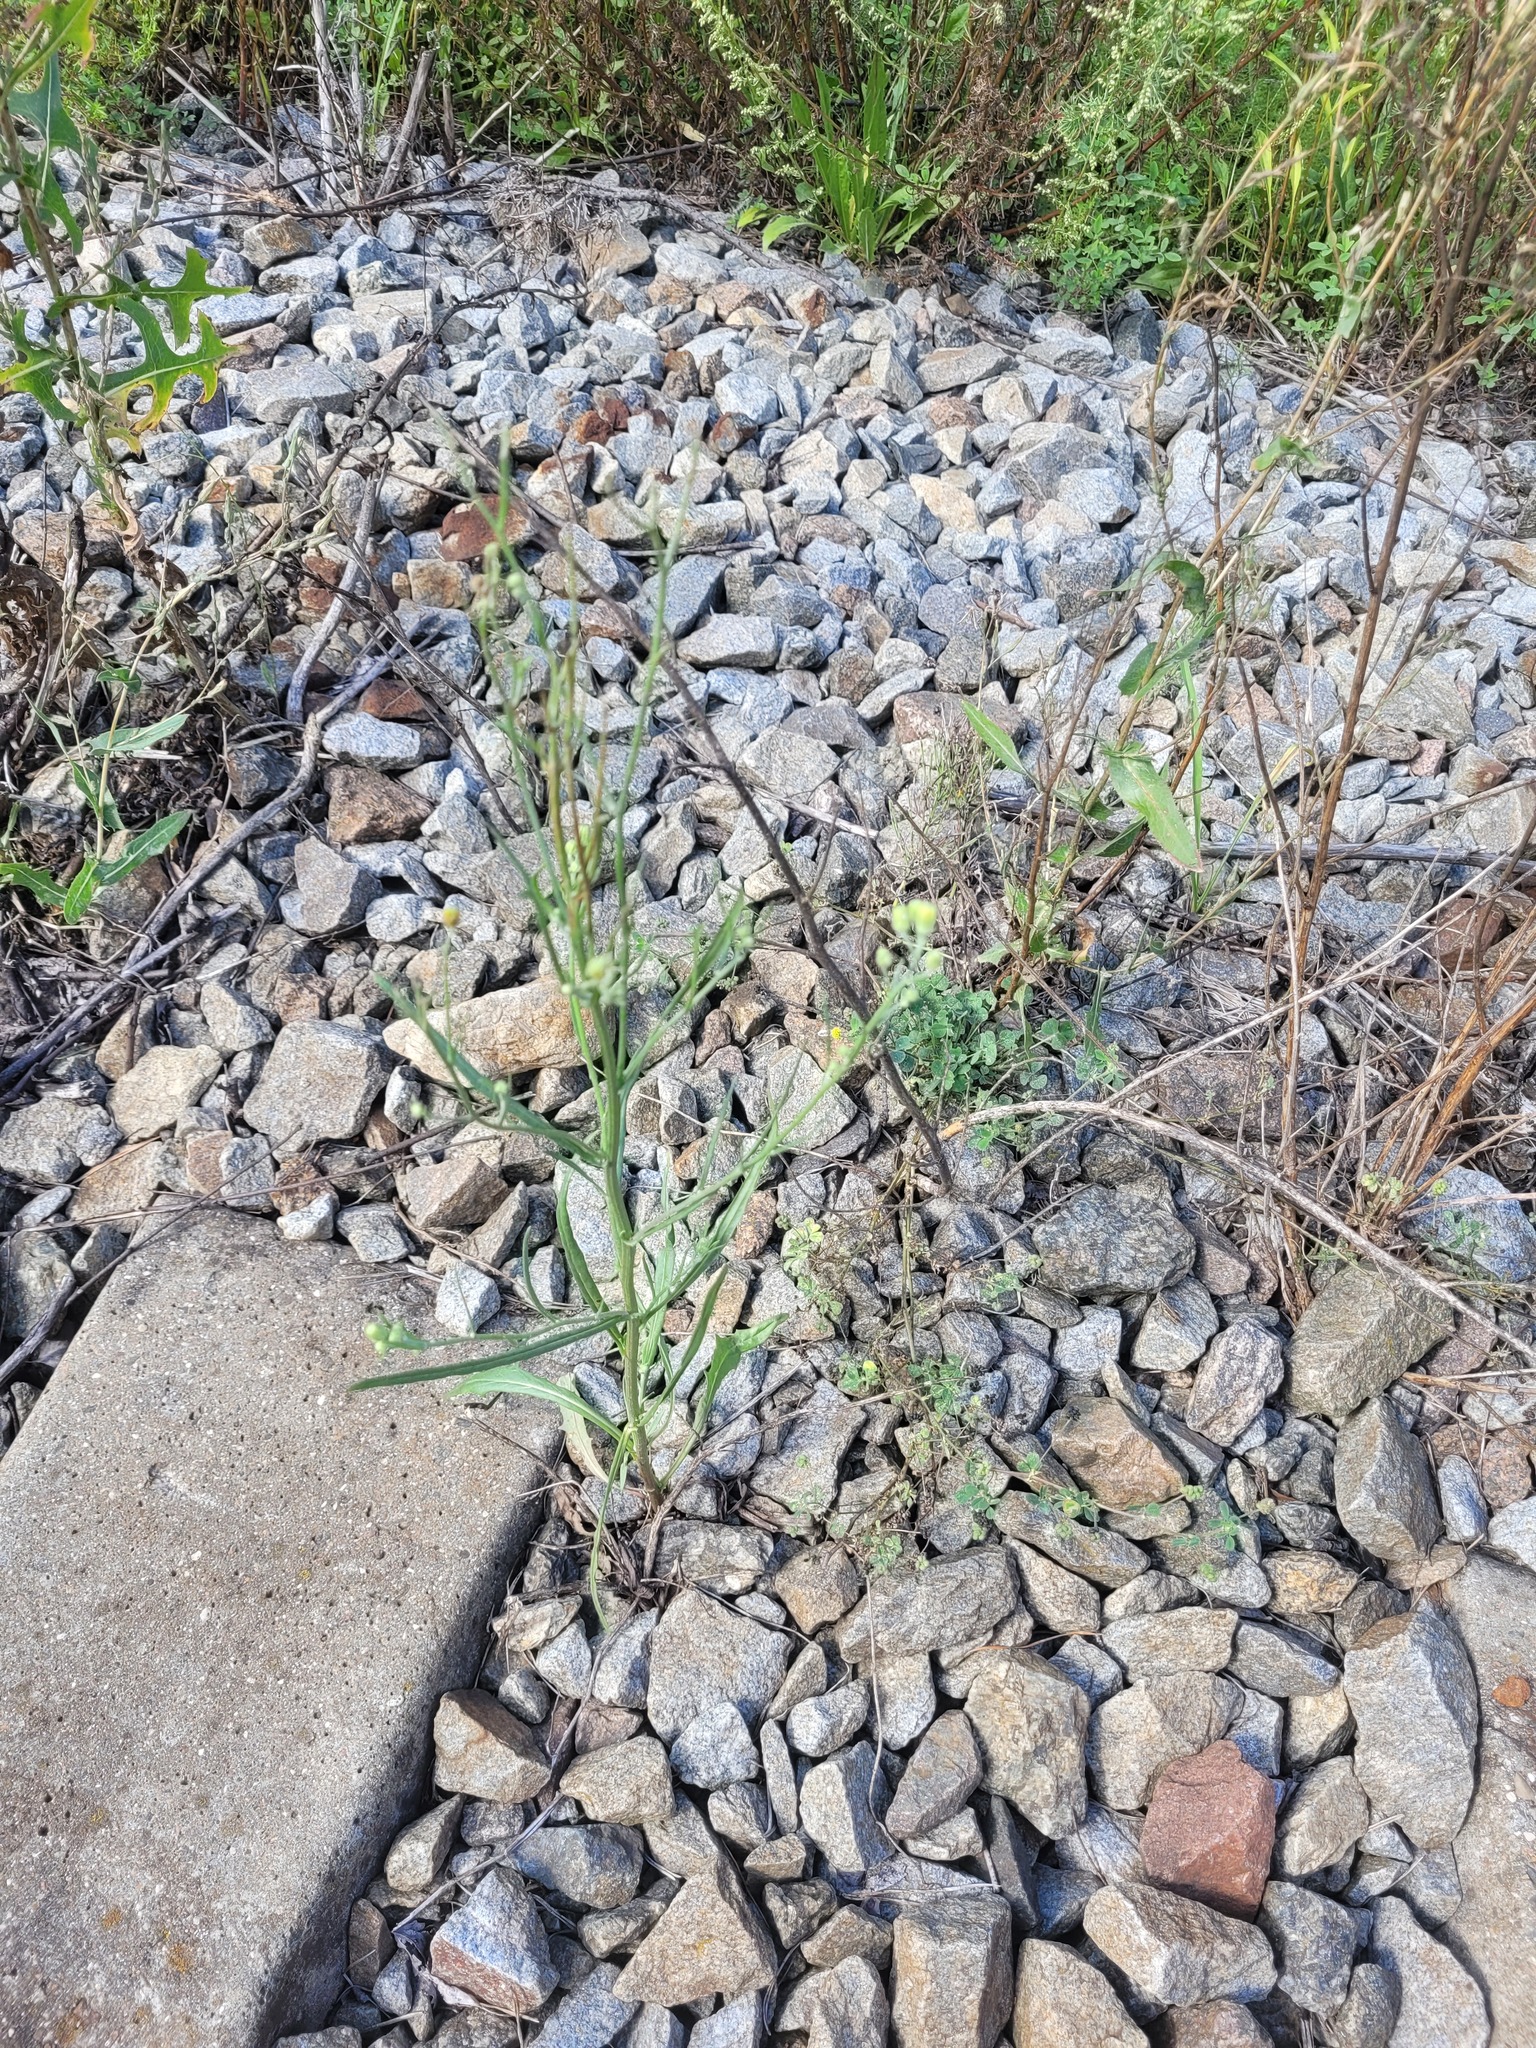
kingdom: Plantae
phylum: Tracheophyta
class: Magnoliopsida
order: Asterales
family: Asteraceae
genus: Crepis
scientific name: Crepis tectorum
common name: Narrow-leaved hawk's-beard
